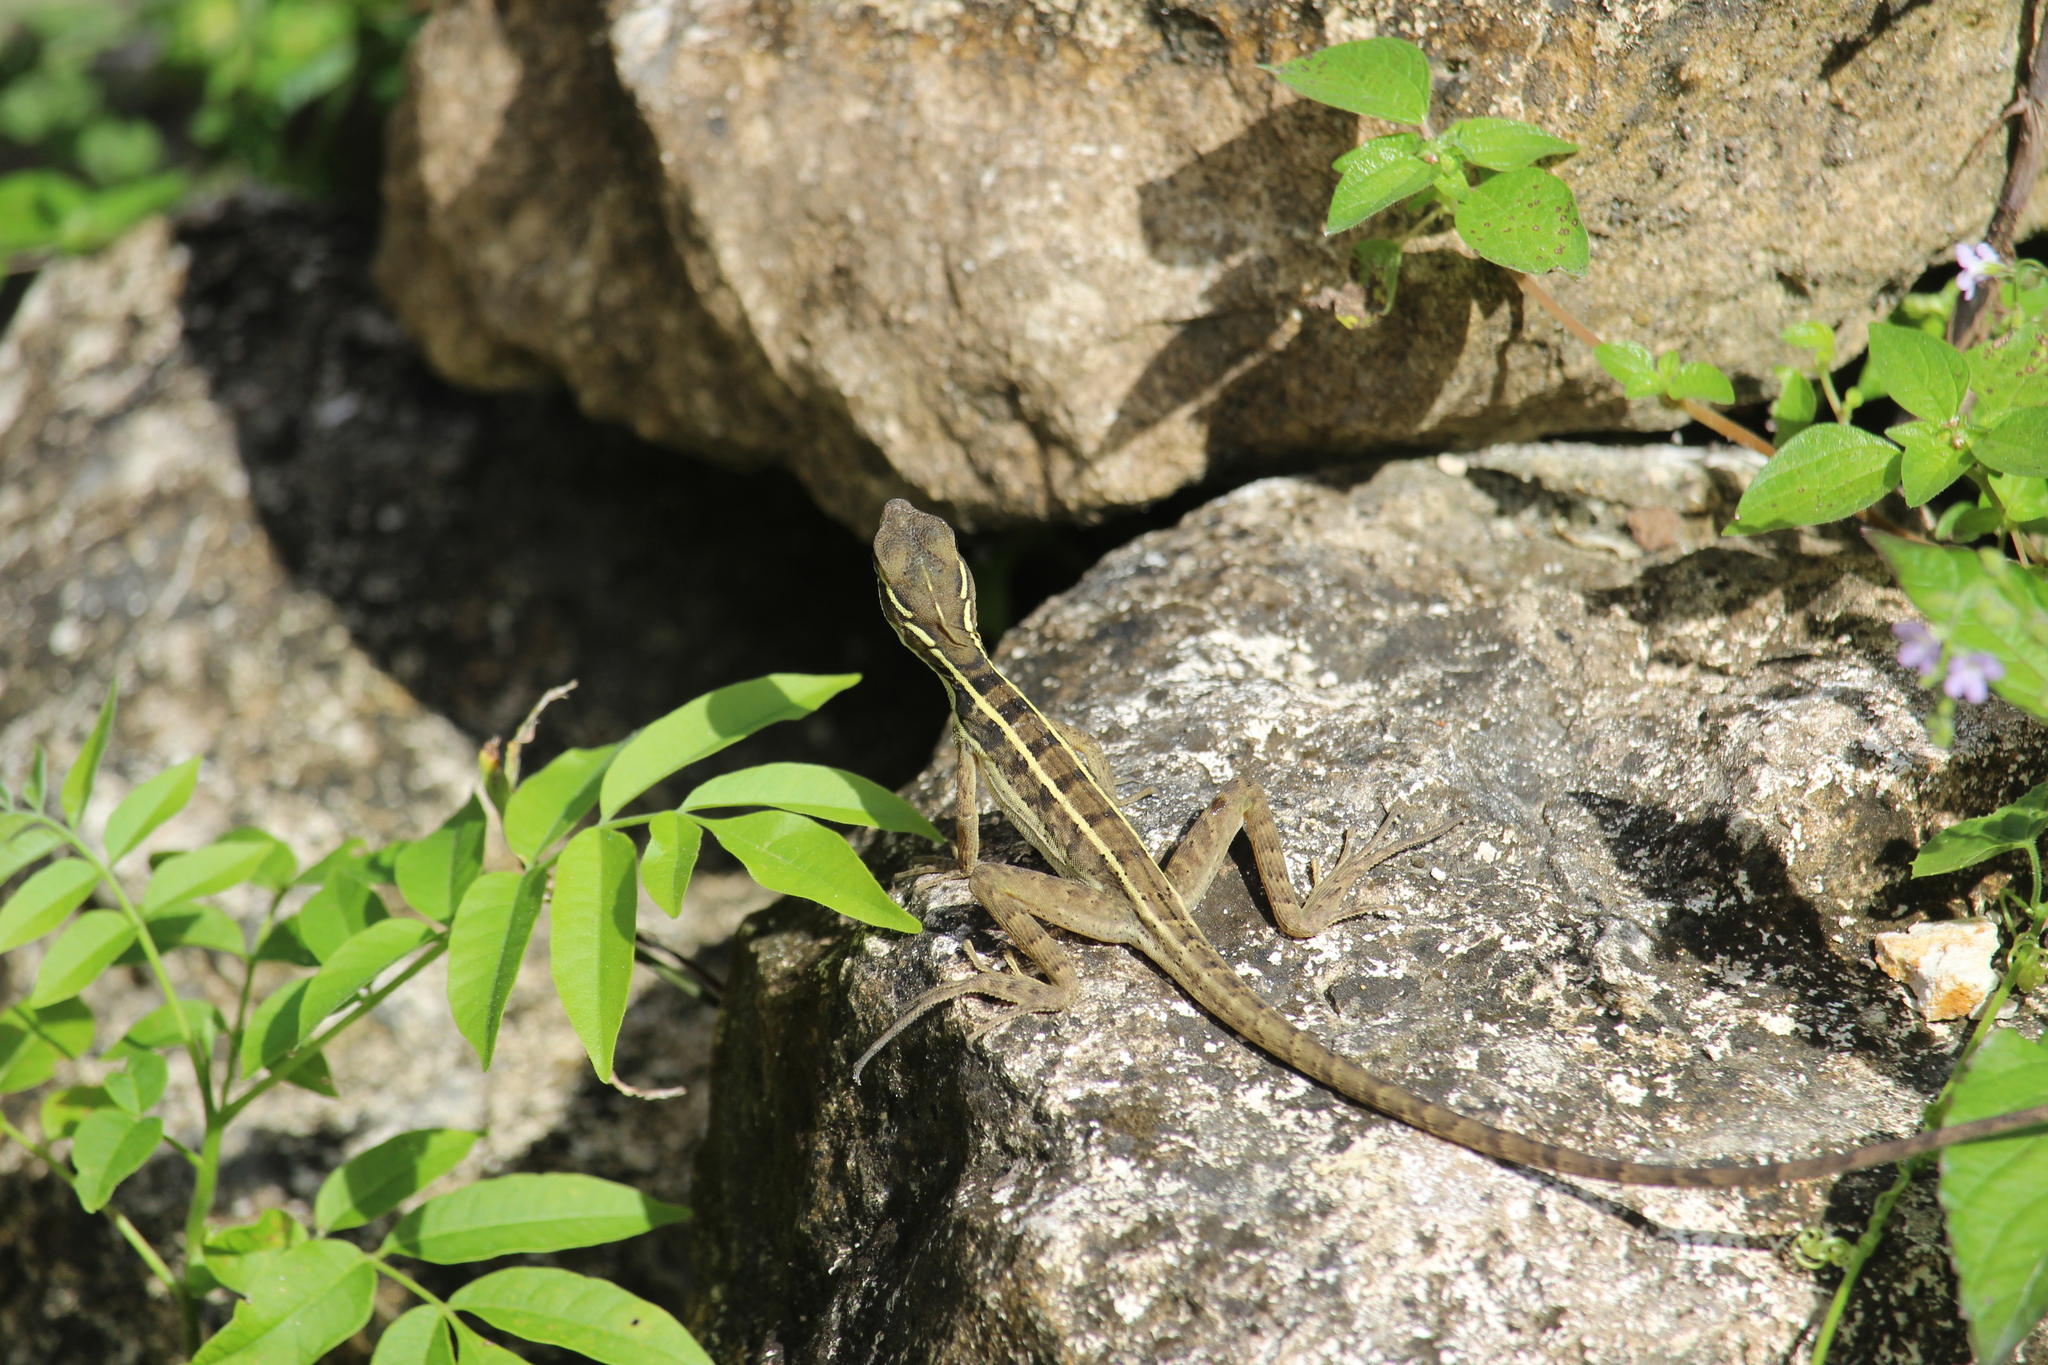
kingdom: Animalia
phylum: Chordata
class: Squamata
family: Corytophanidae
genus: Basiliscus
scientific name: Basiliscus vittatus
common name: Brown basilisk
